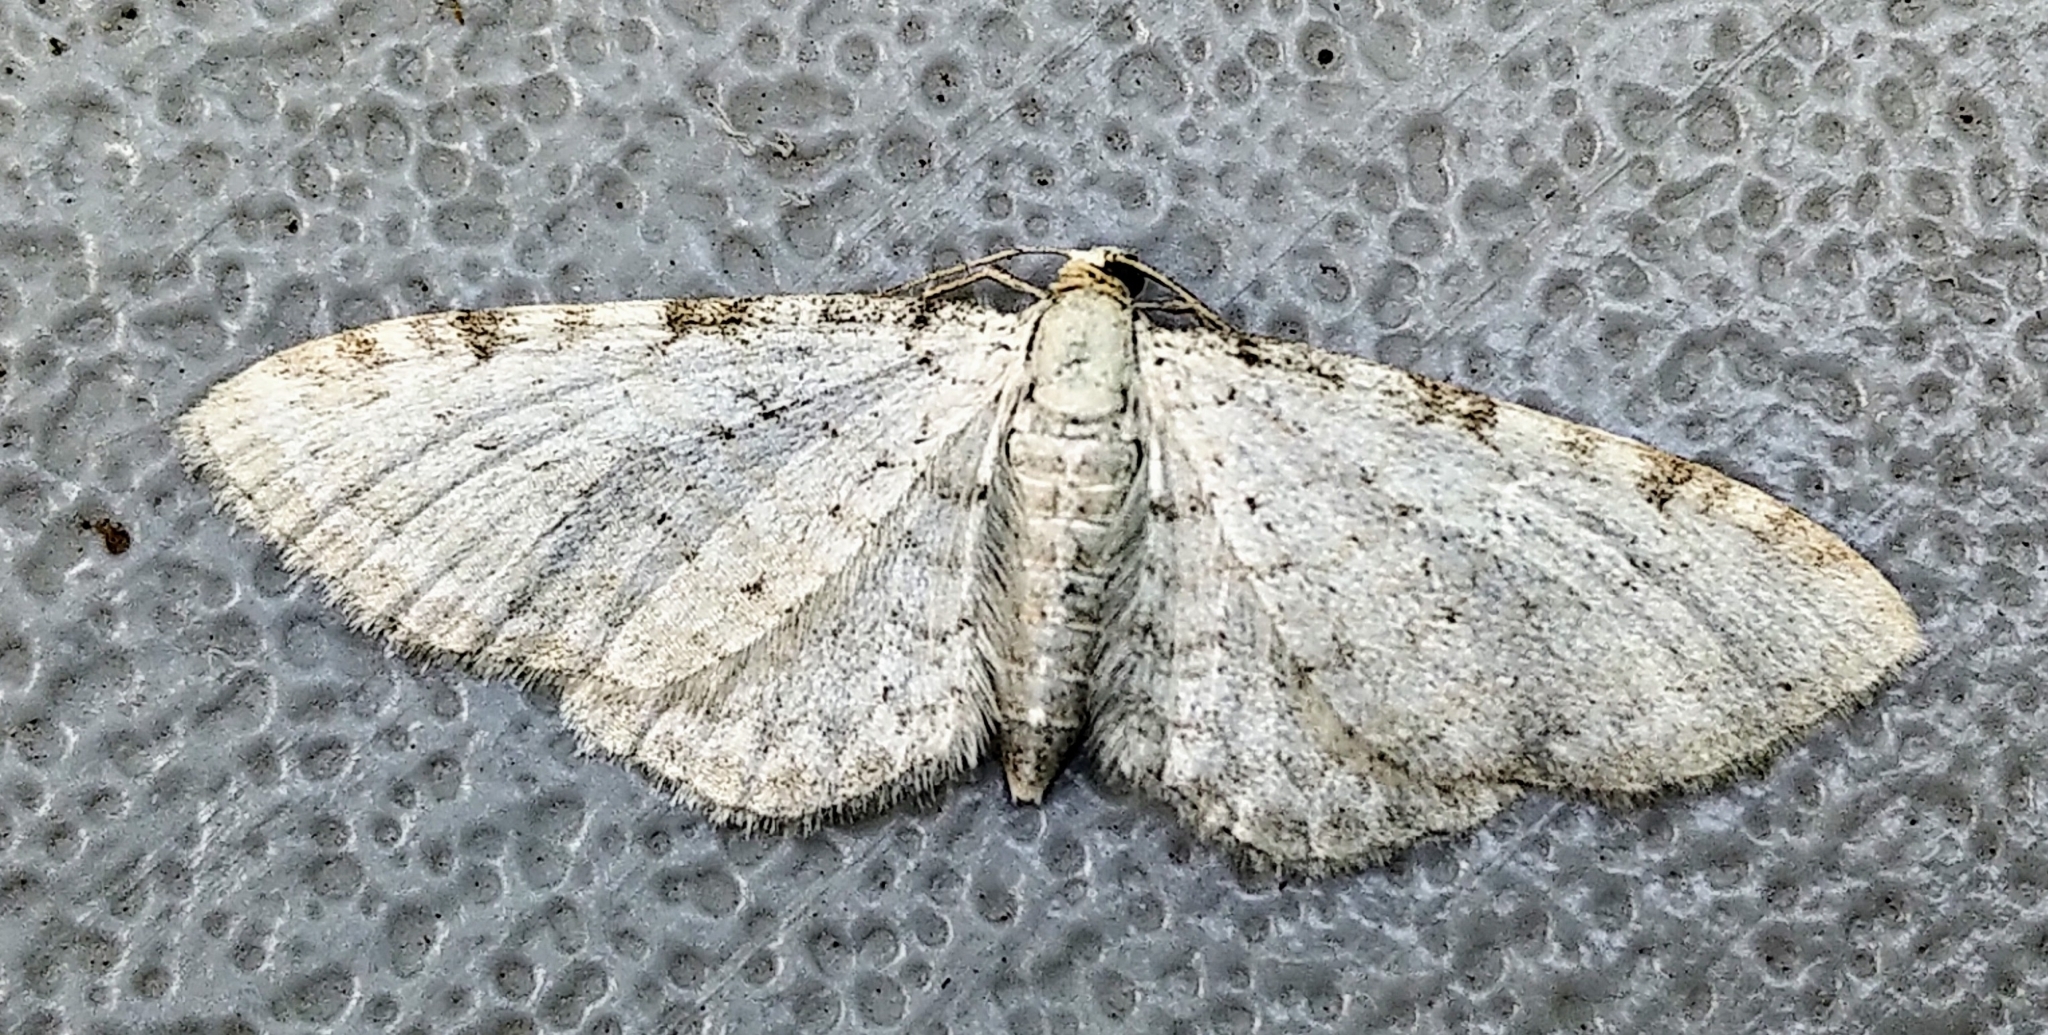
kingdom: Animalia
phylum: Arthropoda
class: Insecta
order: Lepidoptera
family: Geometridae
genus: Eupithecia
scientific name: Eupithecia cretaceata
